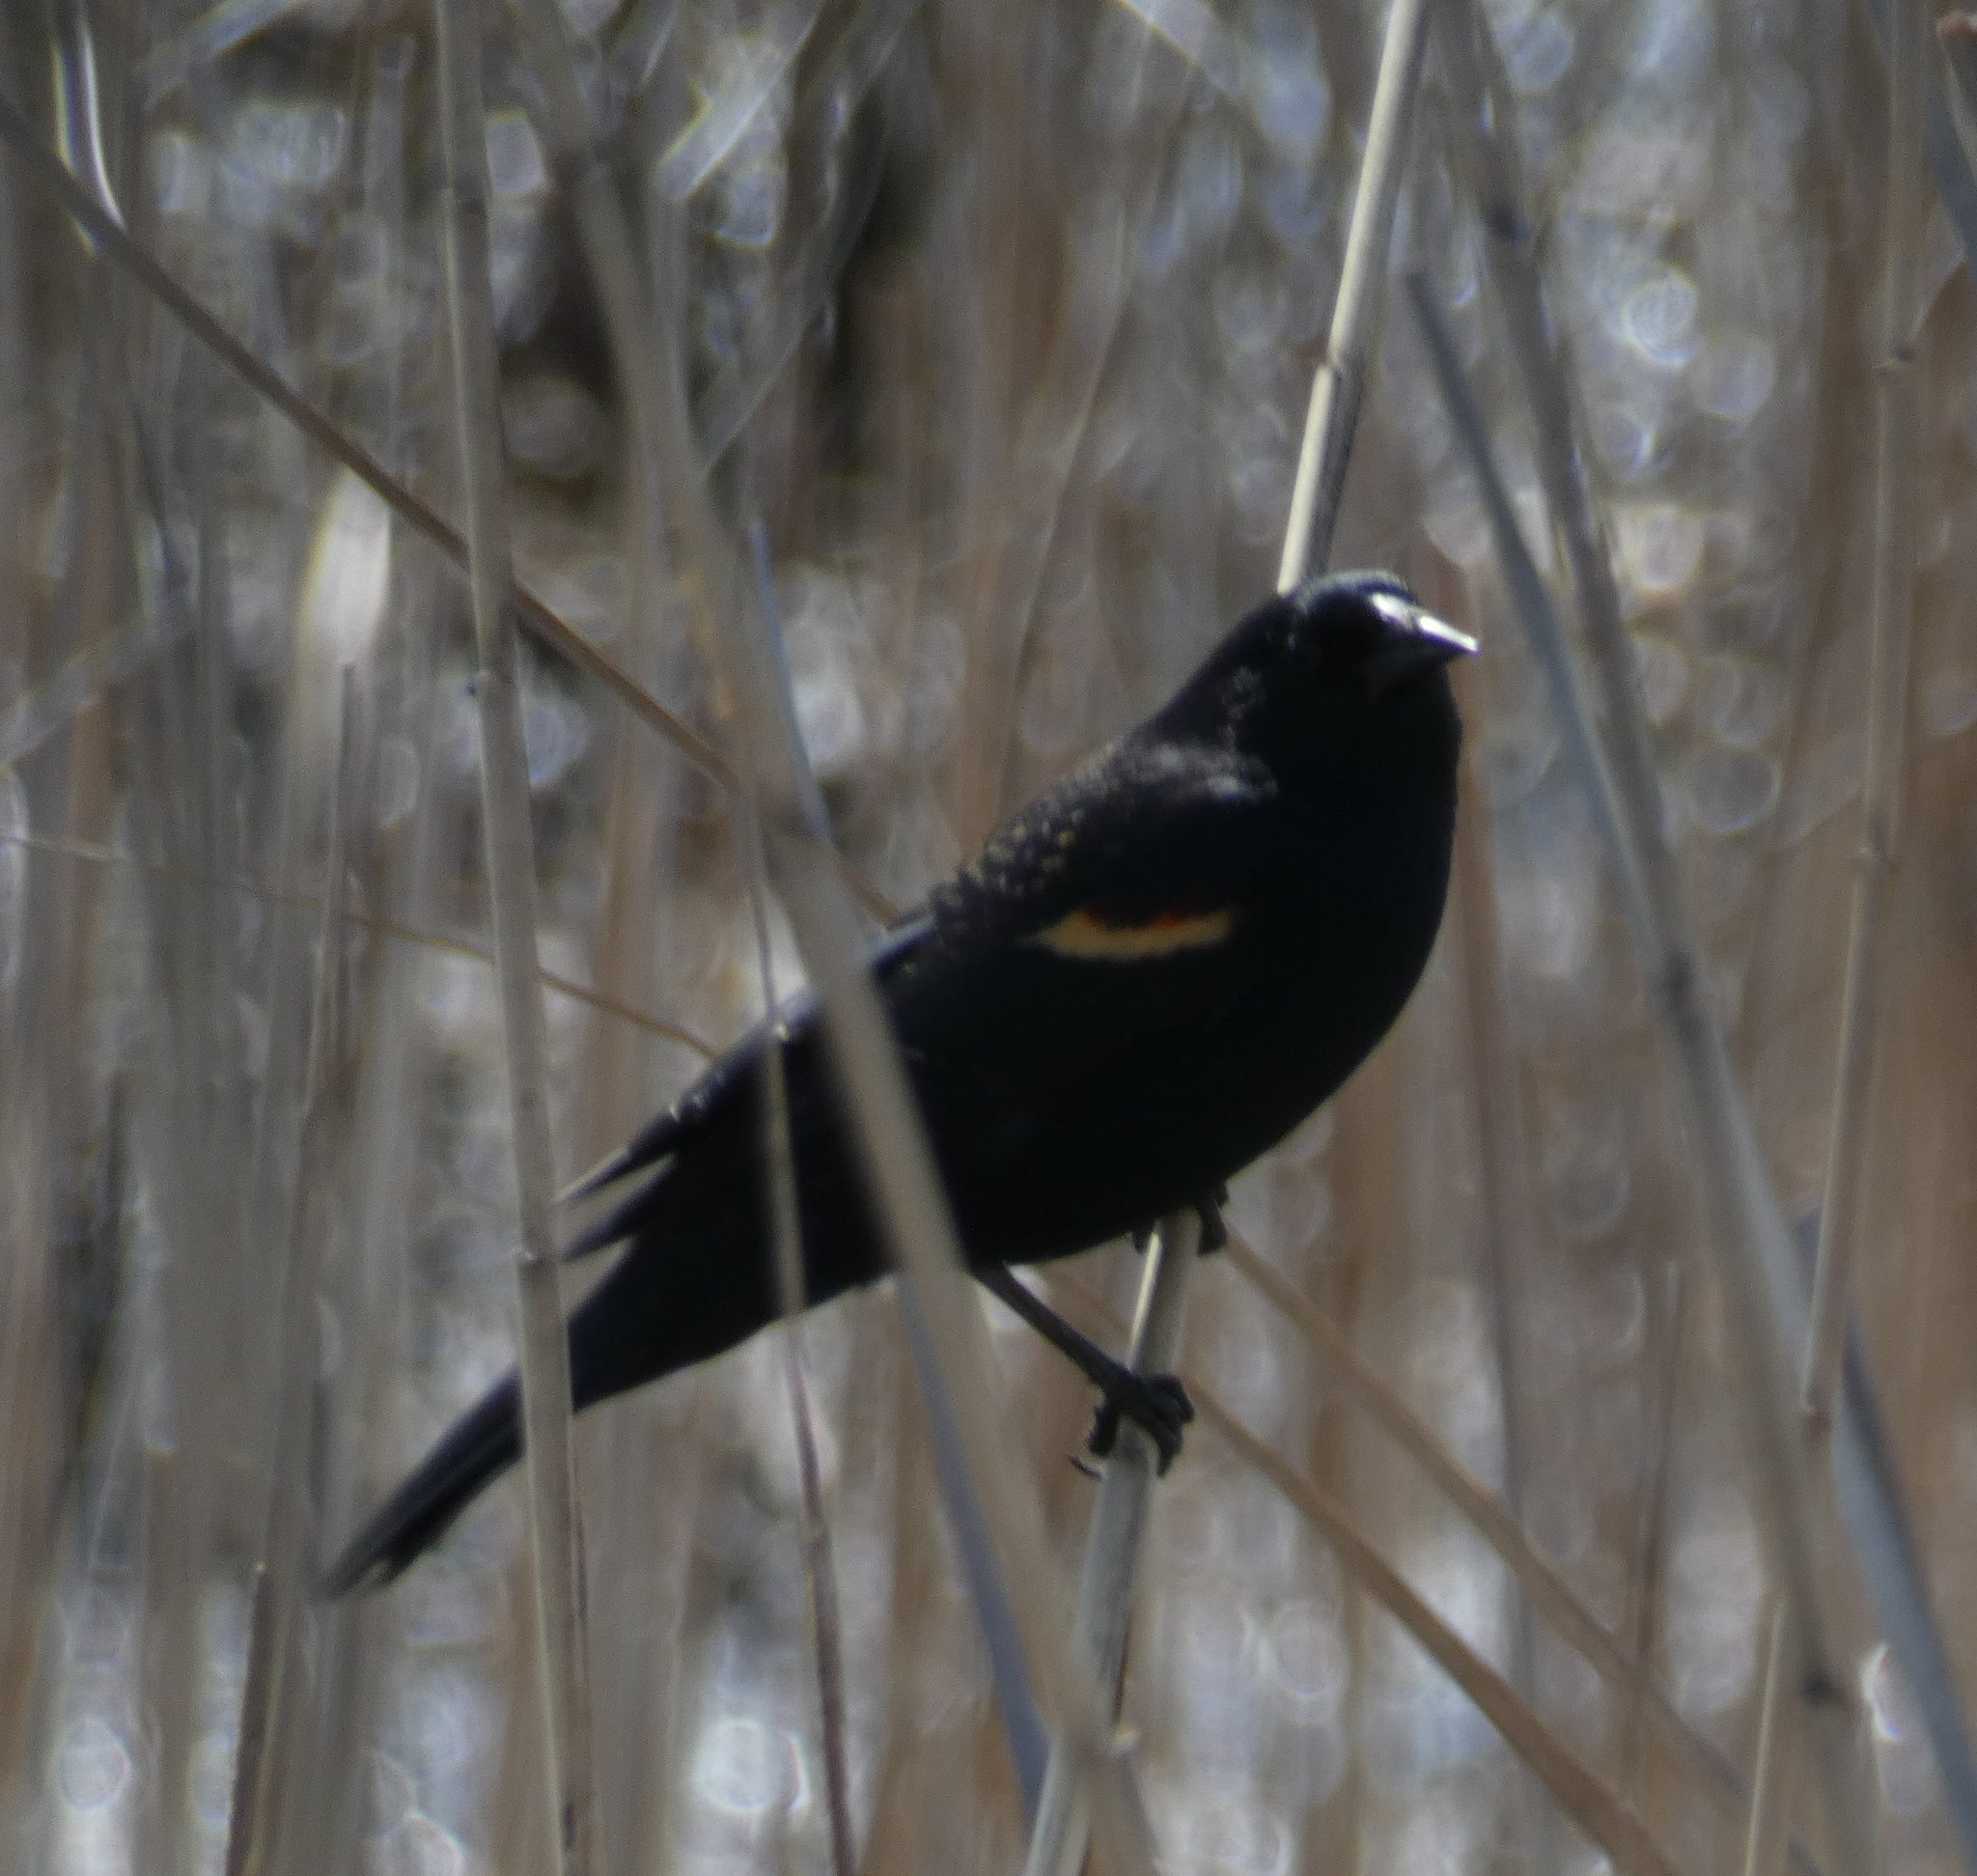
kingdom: Animalia
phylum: Chordata
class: Aves
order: Passeriformes
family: Icteridae
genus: Agelaius
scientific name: Agelaius phoeniceus
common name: Red-winged blackbird
